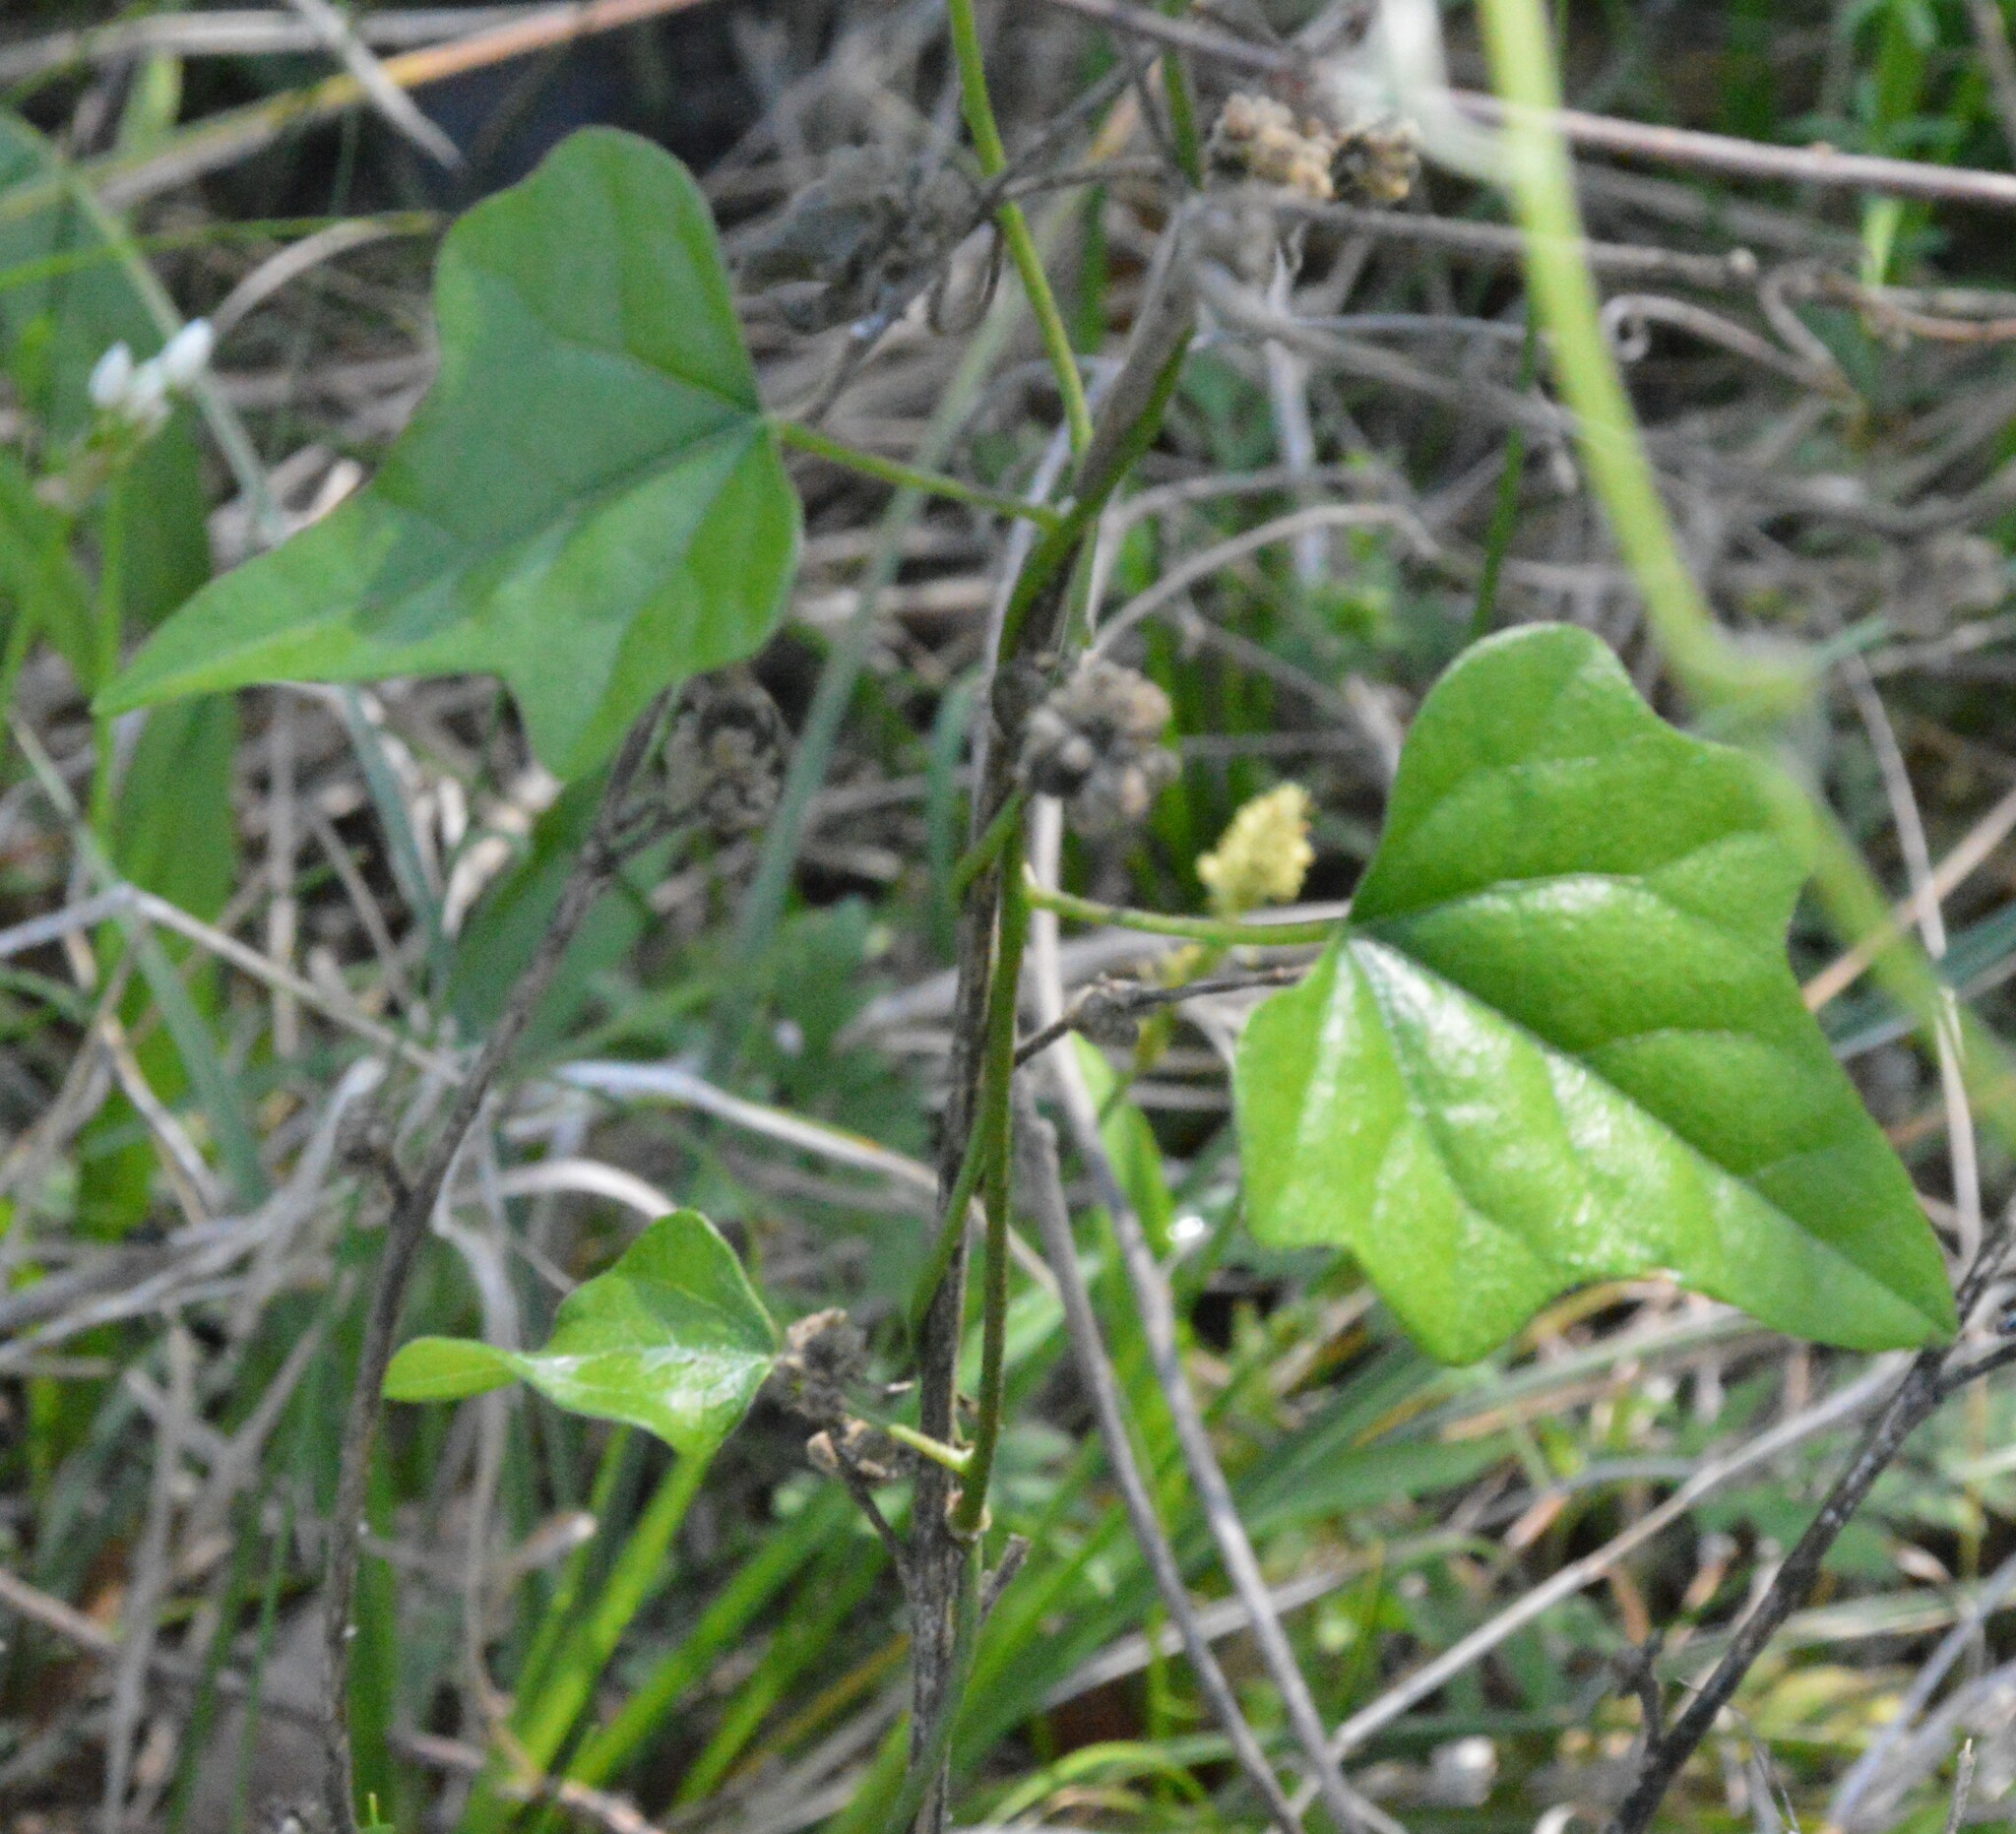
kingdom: Plantae
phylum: Tracheophyta
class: Magnoliopsida
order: Ranunculales
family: Menispermaceae
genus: Cocculus
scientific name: Cocculus carolinus
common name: Carolina moonseed
